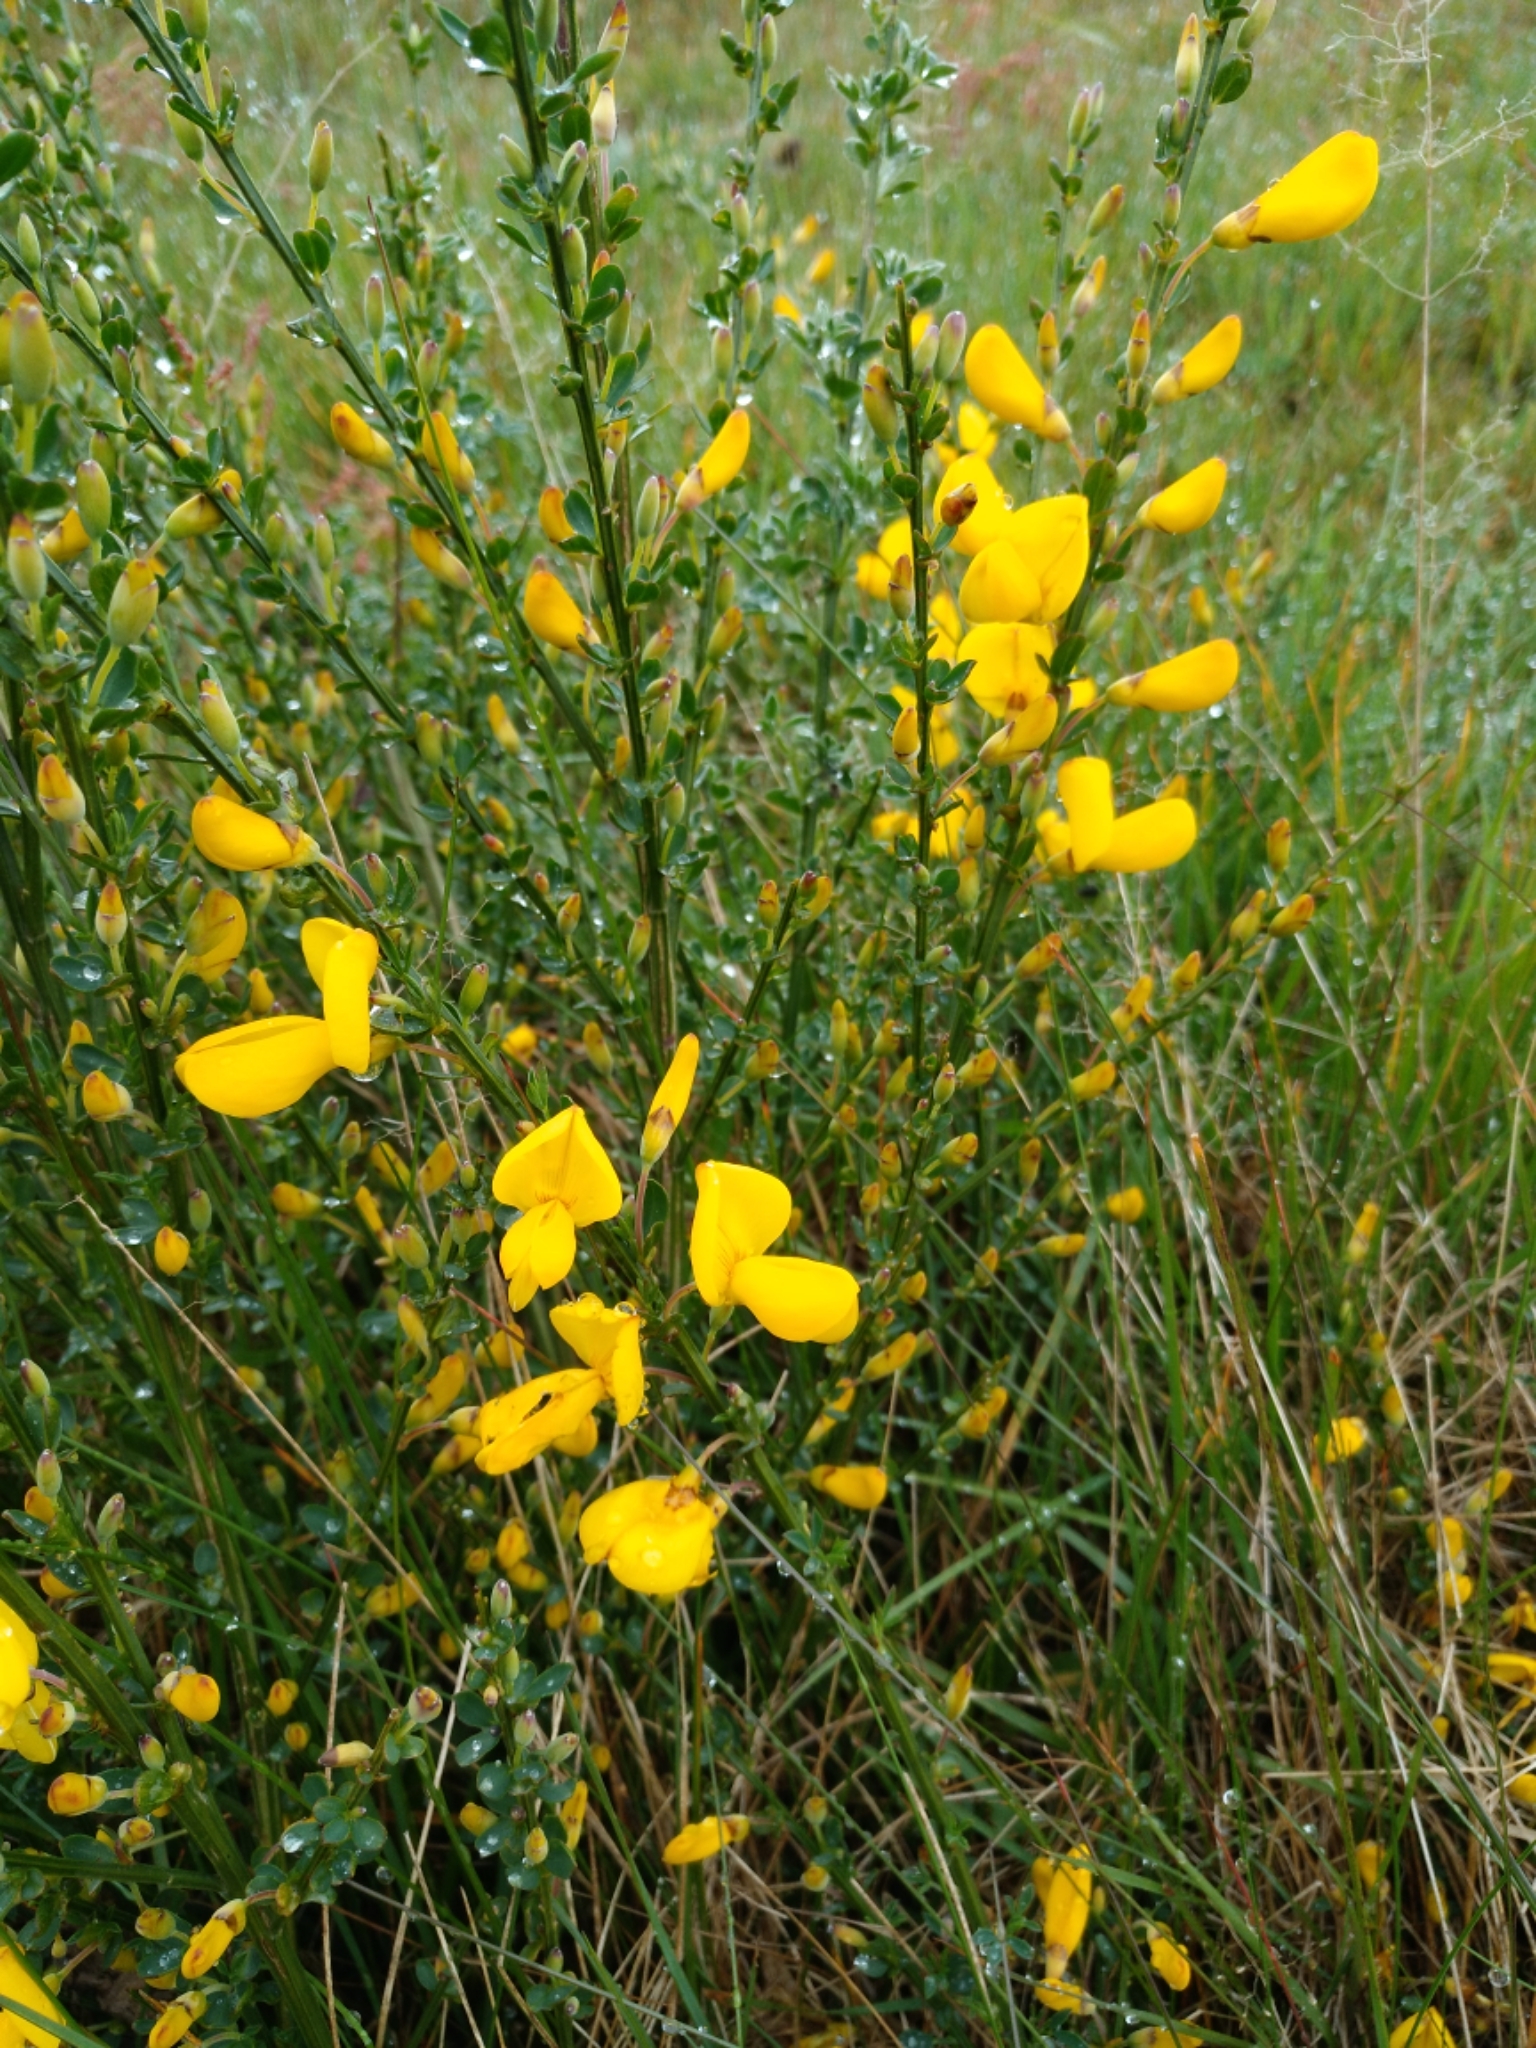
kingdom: Plantae
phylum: Tracheophyta
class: Magnoliopsida
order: Fabales
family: Fabaceae
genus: Cytisus
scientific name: Cytisus scoparius
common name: Scotch broom
